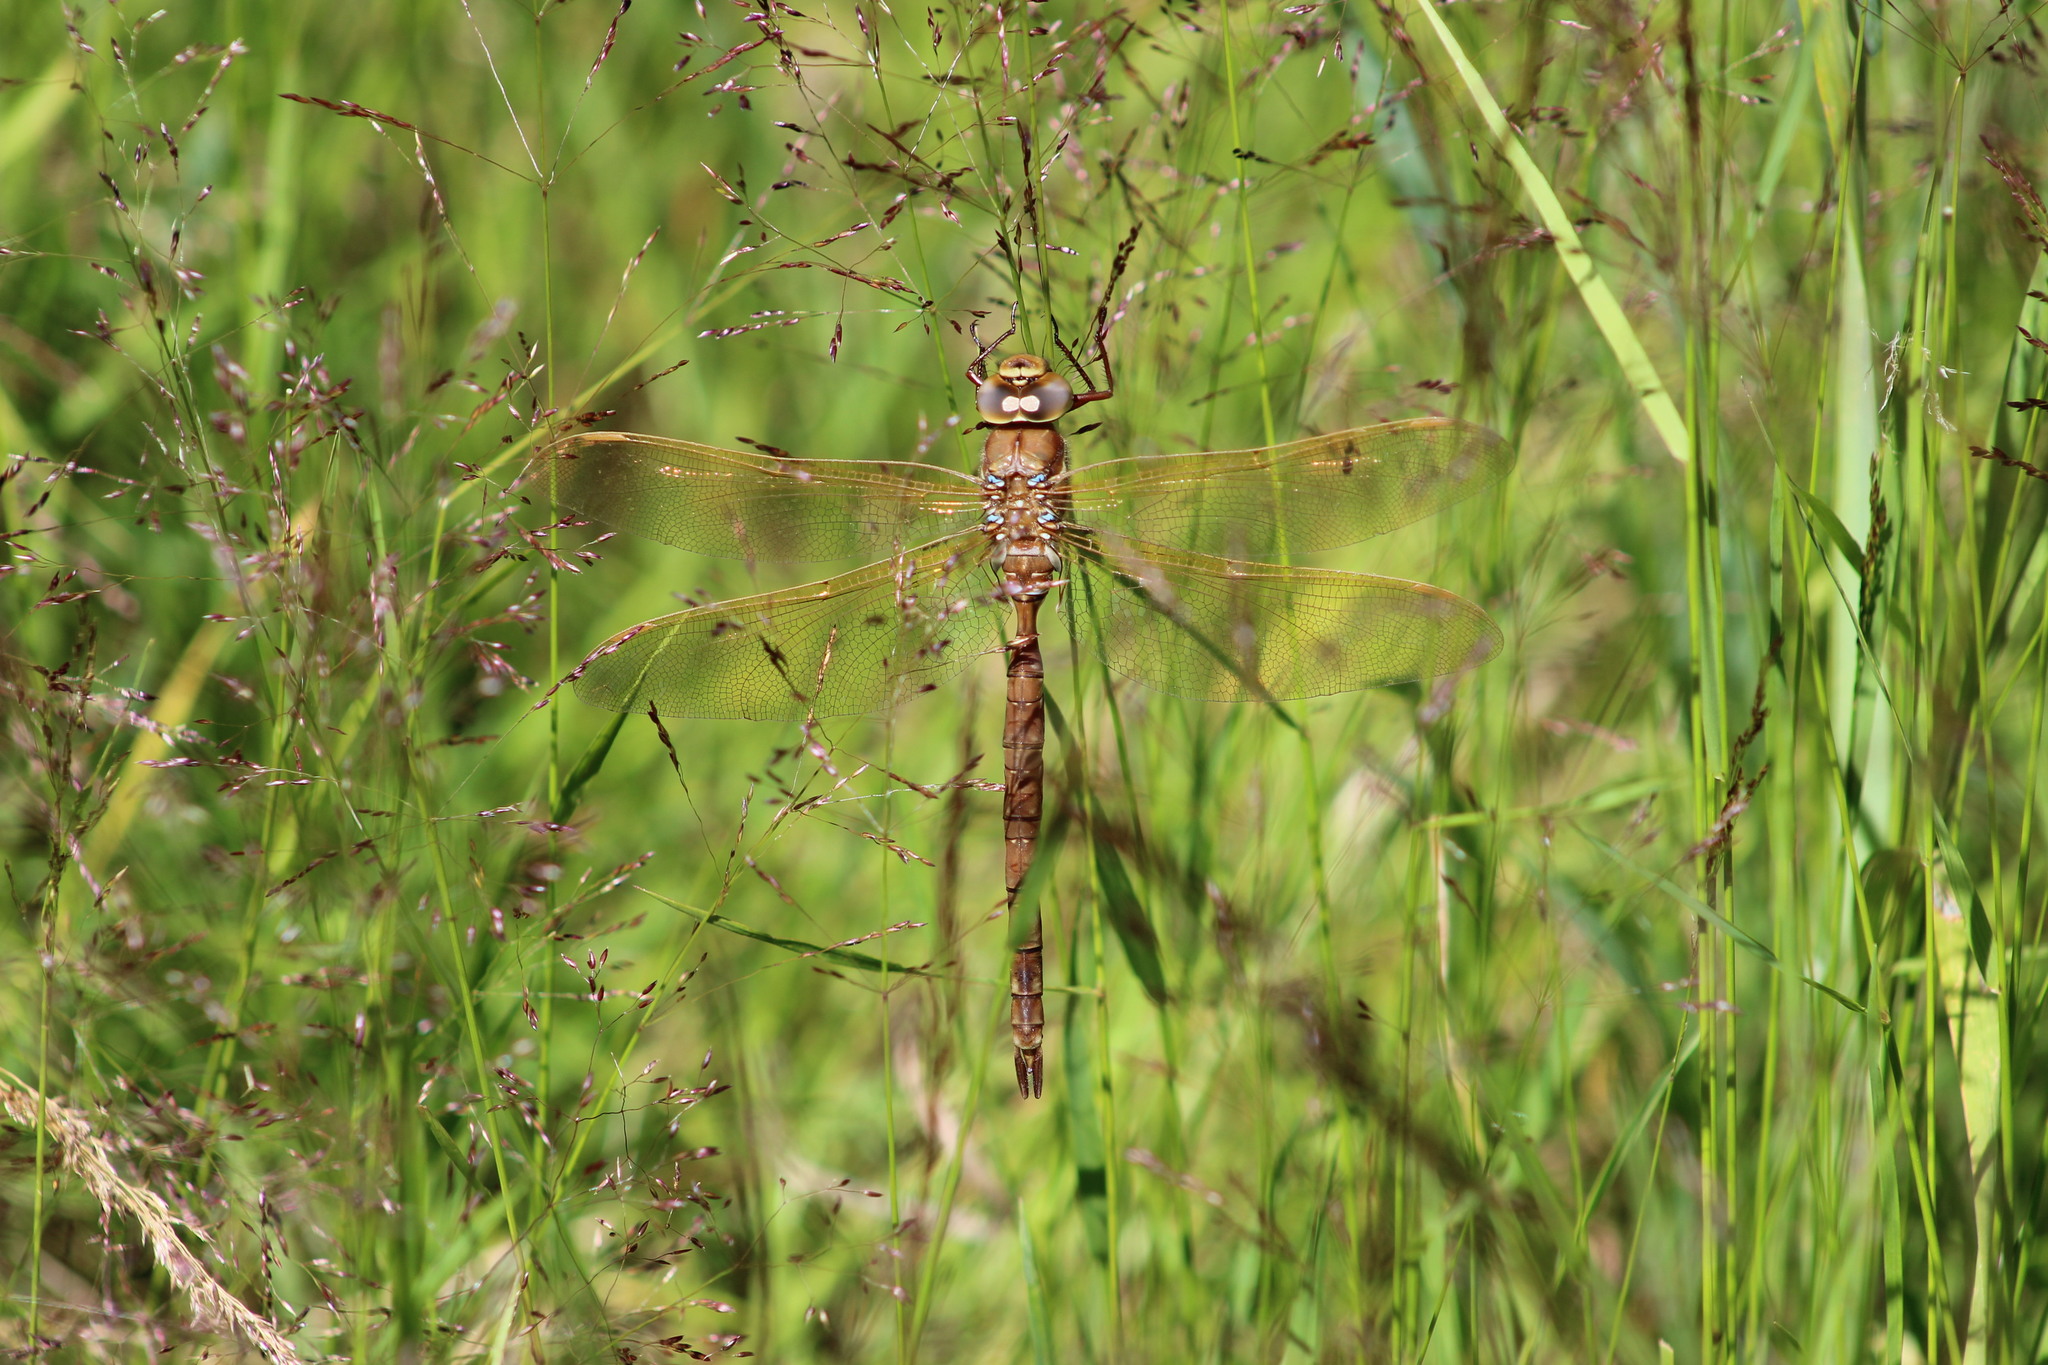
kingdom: Animalia
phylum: Arthropoda
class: Insecta
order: Odonata
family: Aeshnidae
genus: Aeshna
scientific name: Aeshna grandis
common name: Brown hawker
